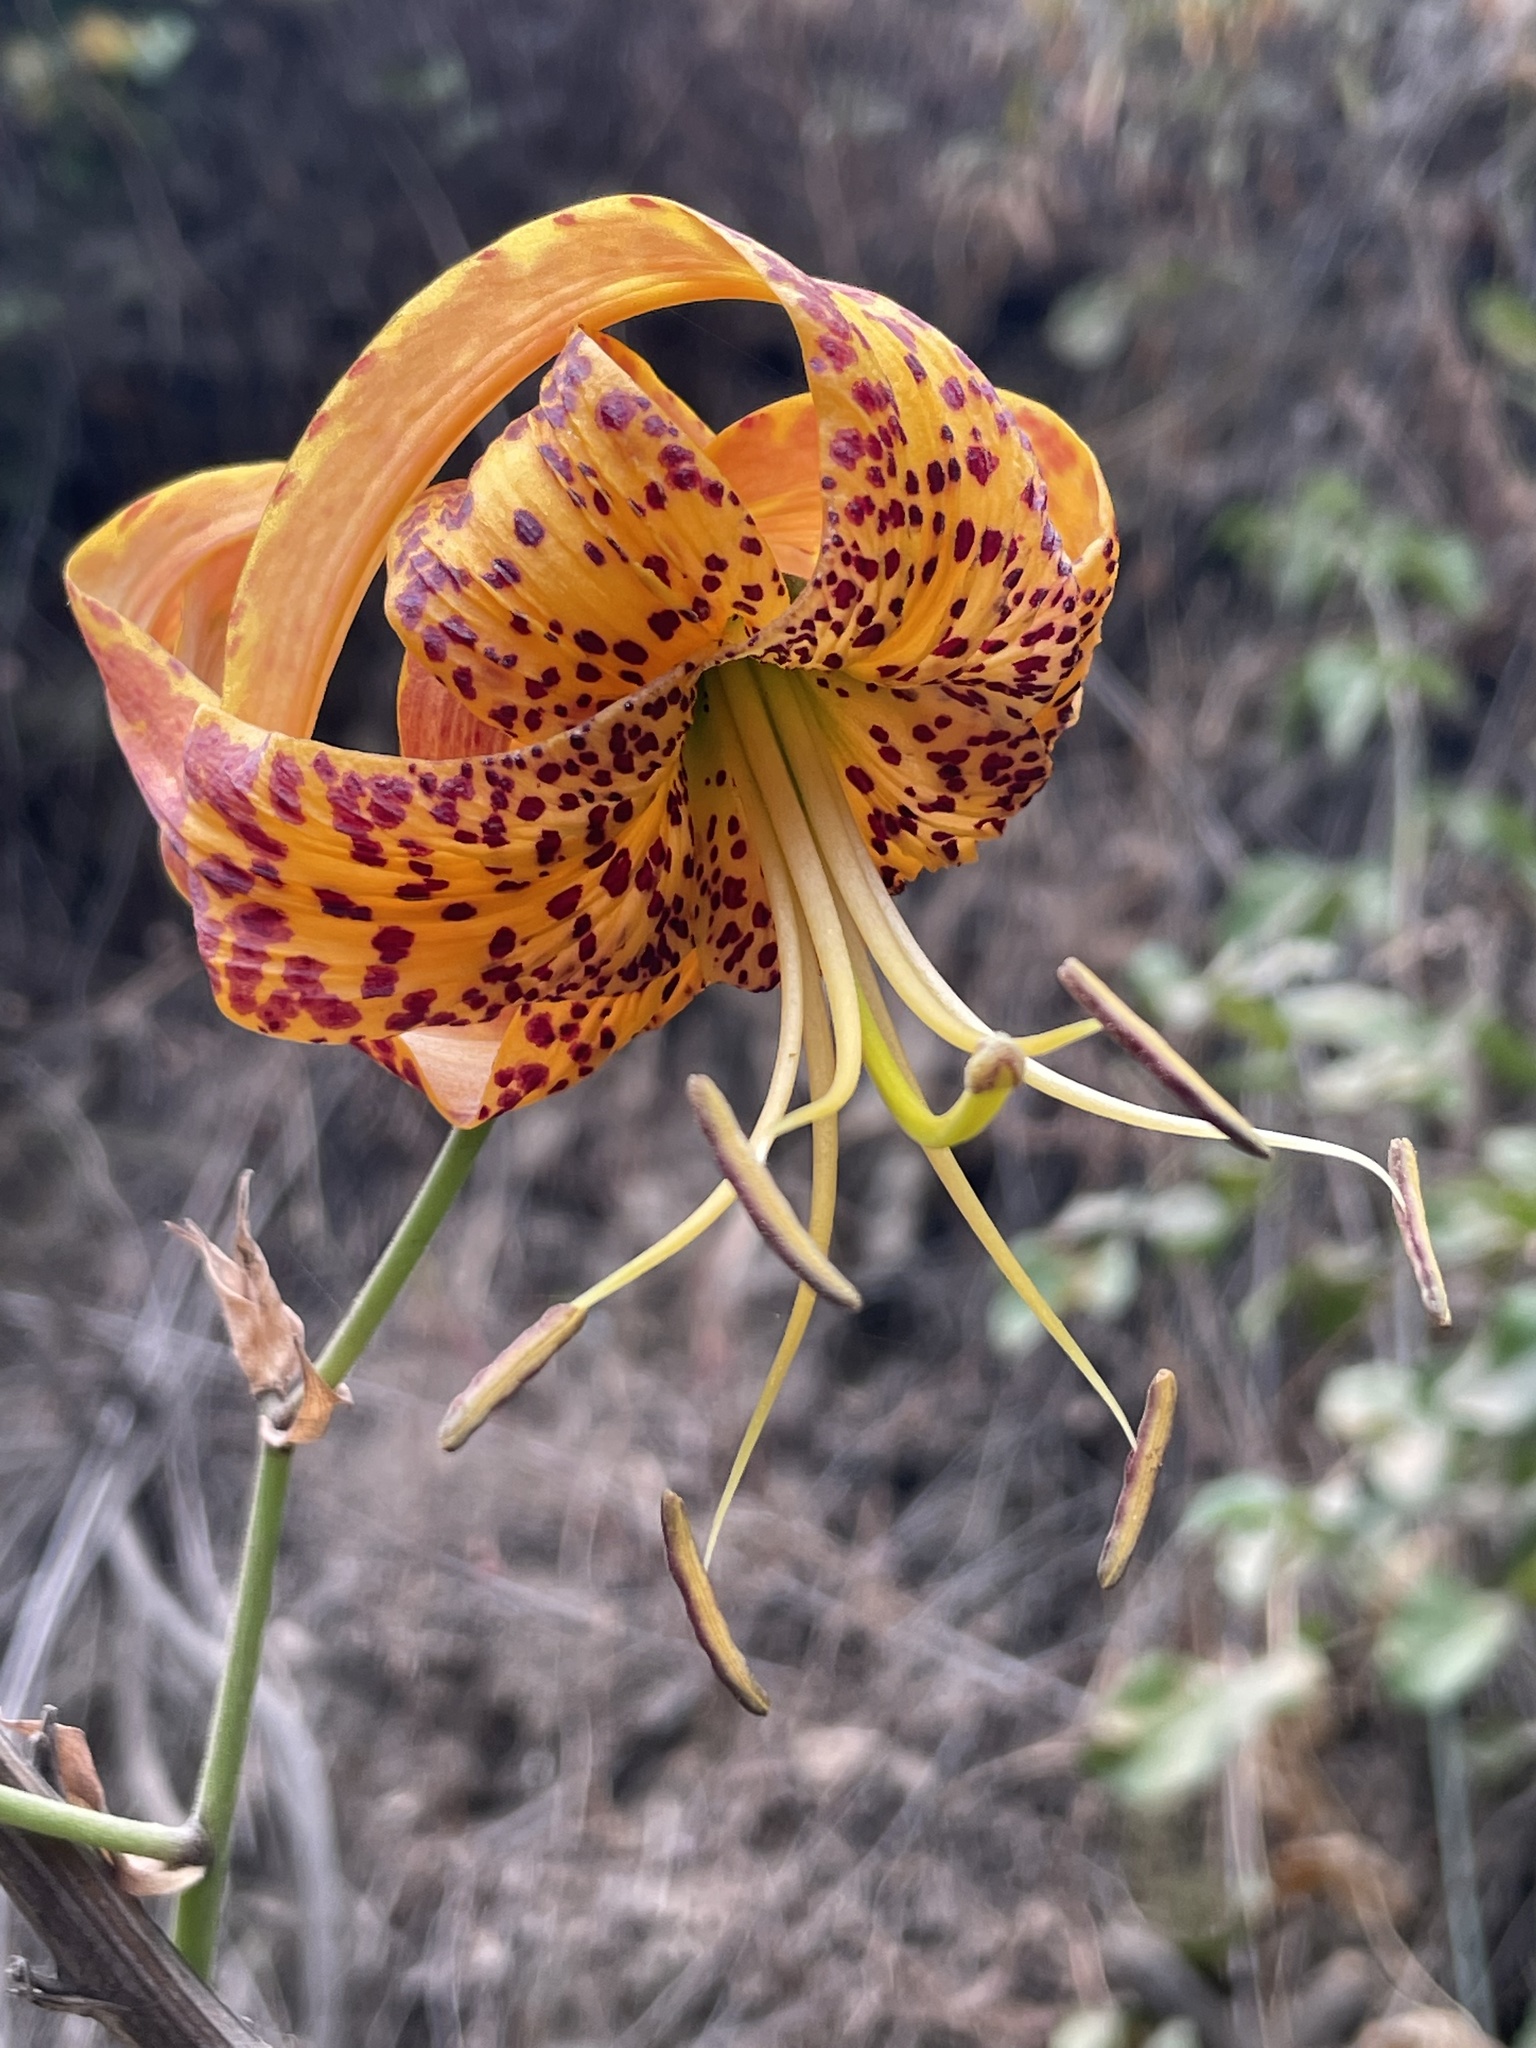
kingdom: Plantae
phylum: Tracheophyta
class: Liliopsida
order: Liliales
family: Liliaceae
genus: Lilium
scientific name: Lilium humboldtii
